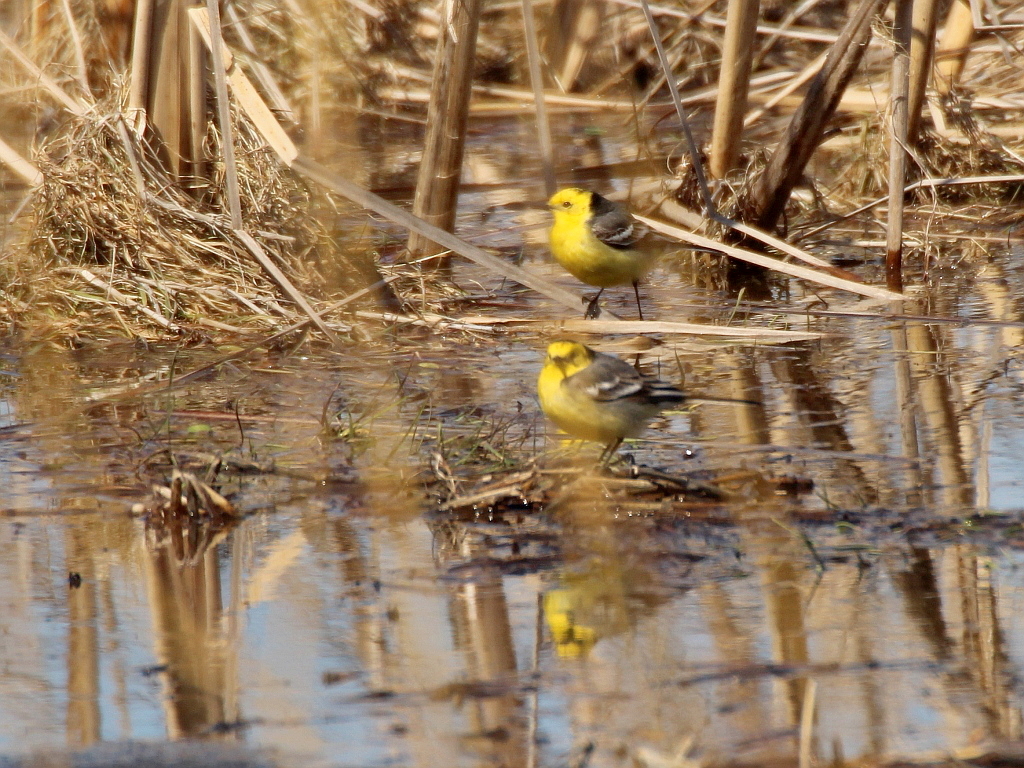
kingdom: Animalia
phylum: Chordata
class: Aves
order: Passeriformes
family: Motacillidae
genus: Motacilla
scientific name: Motacilla citreola
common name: Citrine wagtail
